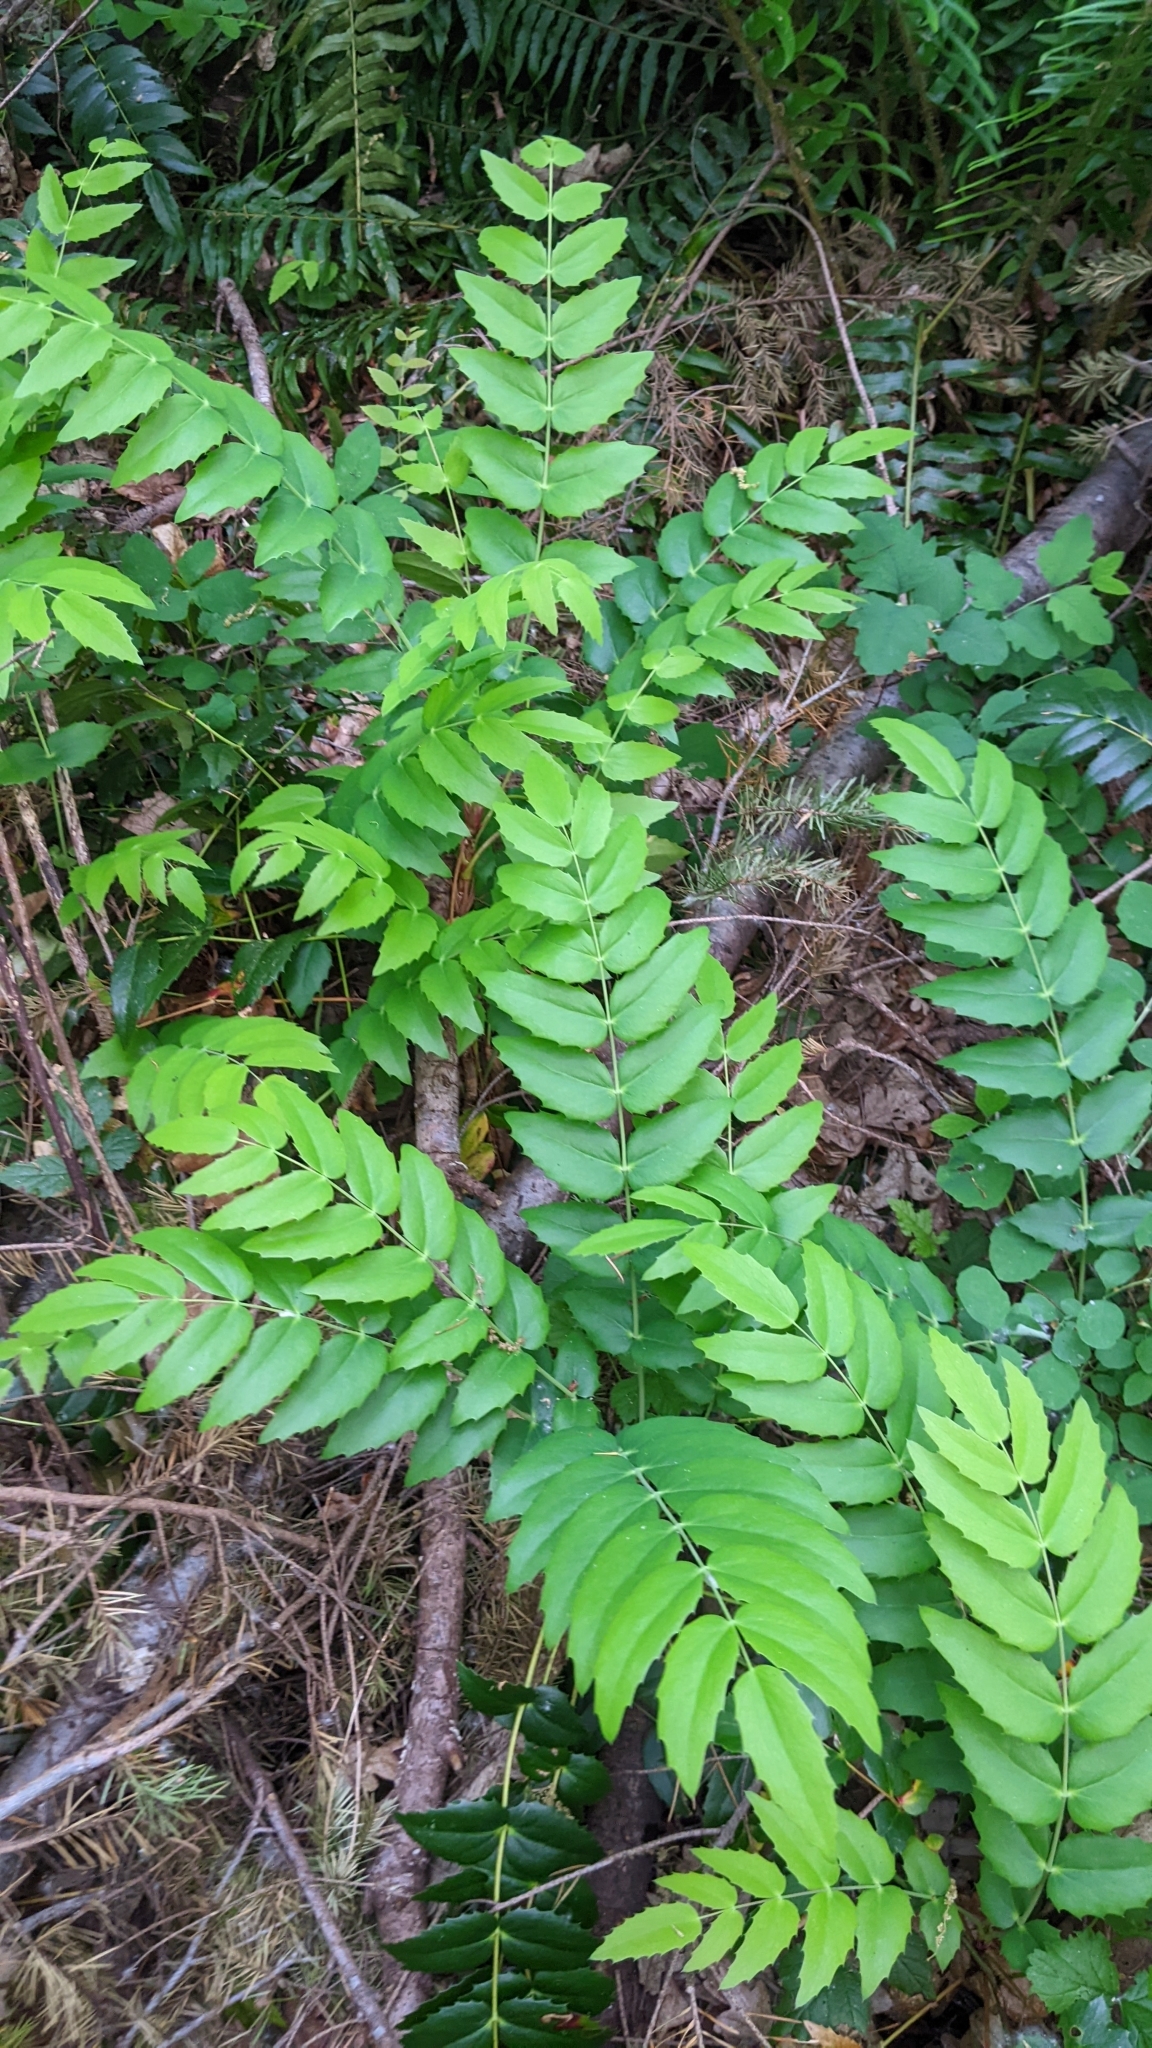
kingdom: Plantae
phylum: Tracheophyta
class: Magnoliopsida
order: Ranunculales
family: Berberidaceae
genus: Mahonia
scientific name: Mahonia nervosa
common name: Cascade oregon-grape
